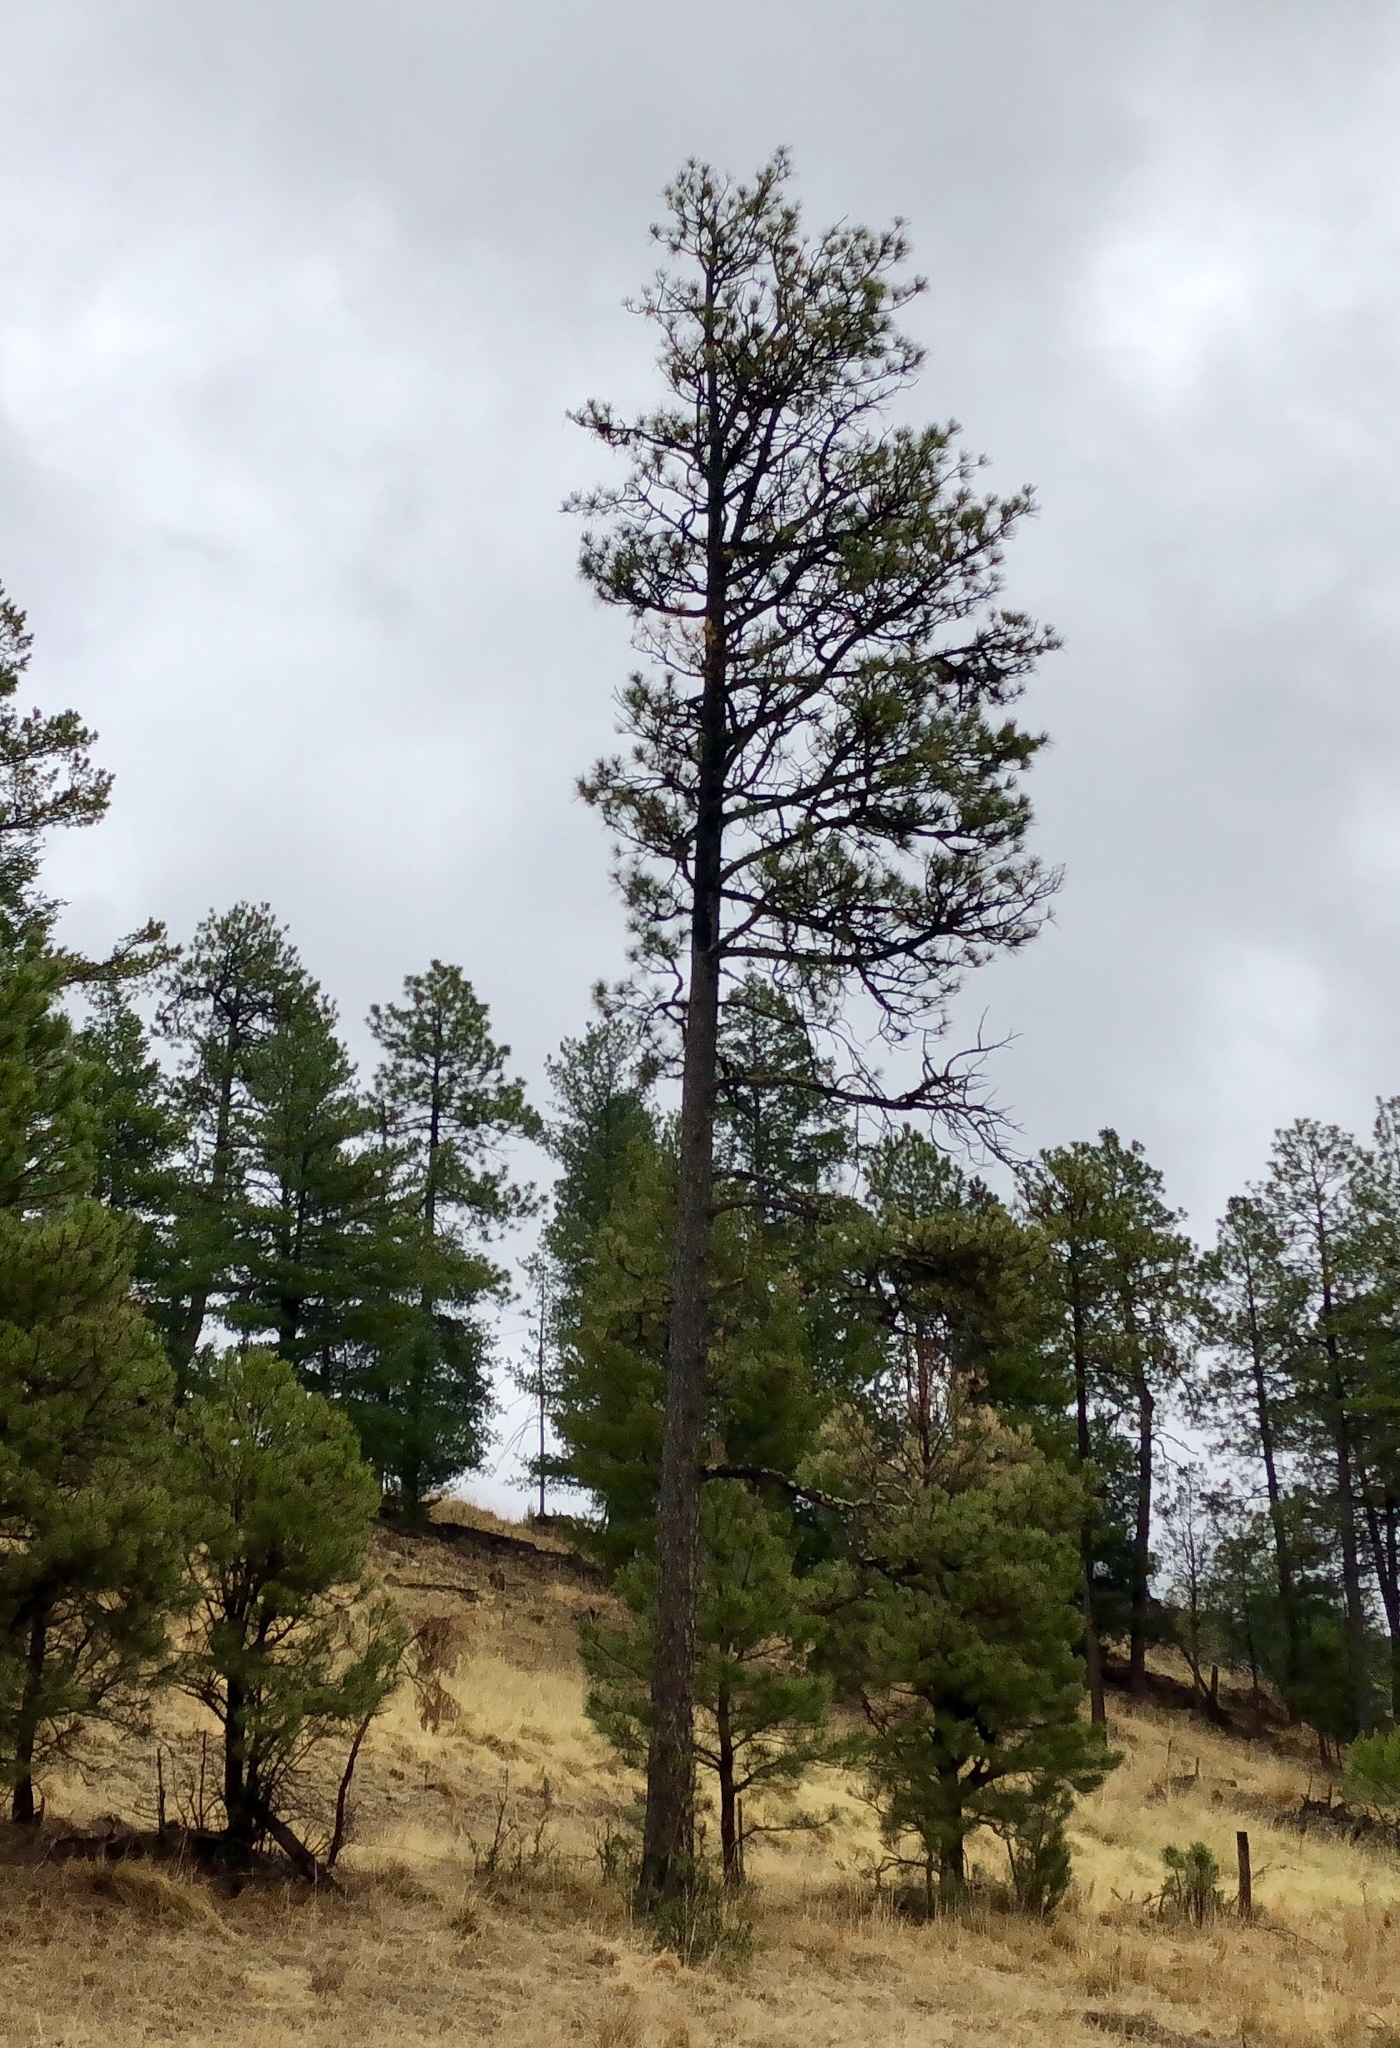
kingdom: Plantae
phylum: Tracheophyta
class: Pinopsida
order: Pinales
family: Pinaceae
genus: Pinus
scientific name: Pinus ponderosa
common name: Western yellow-pine
